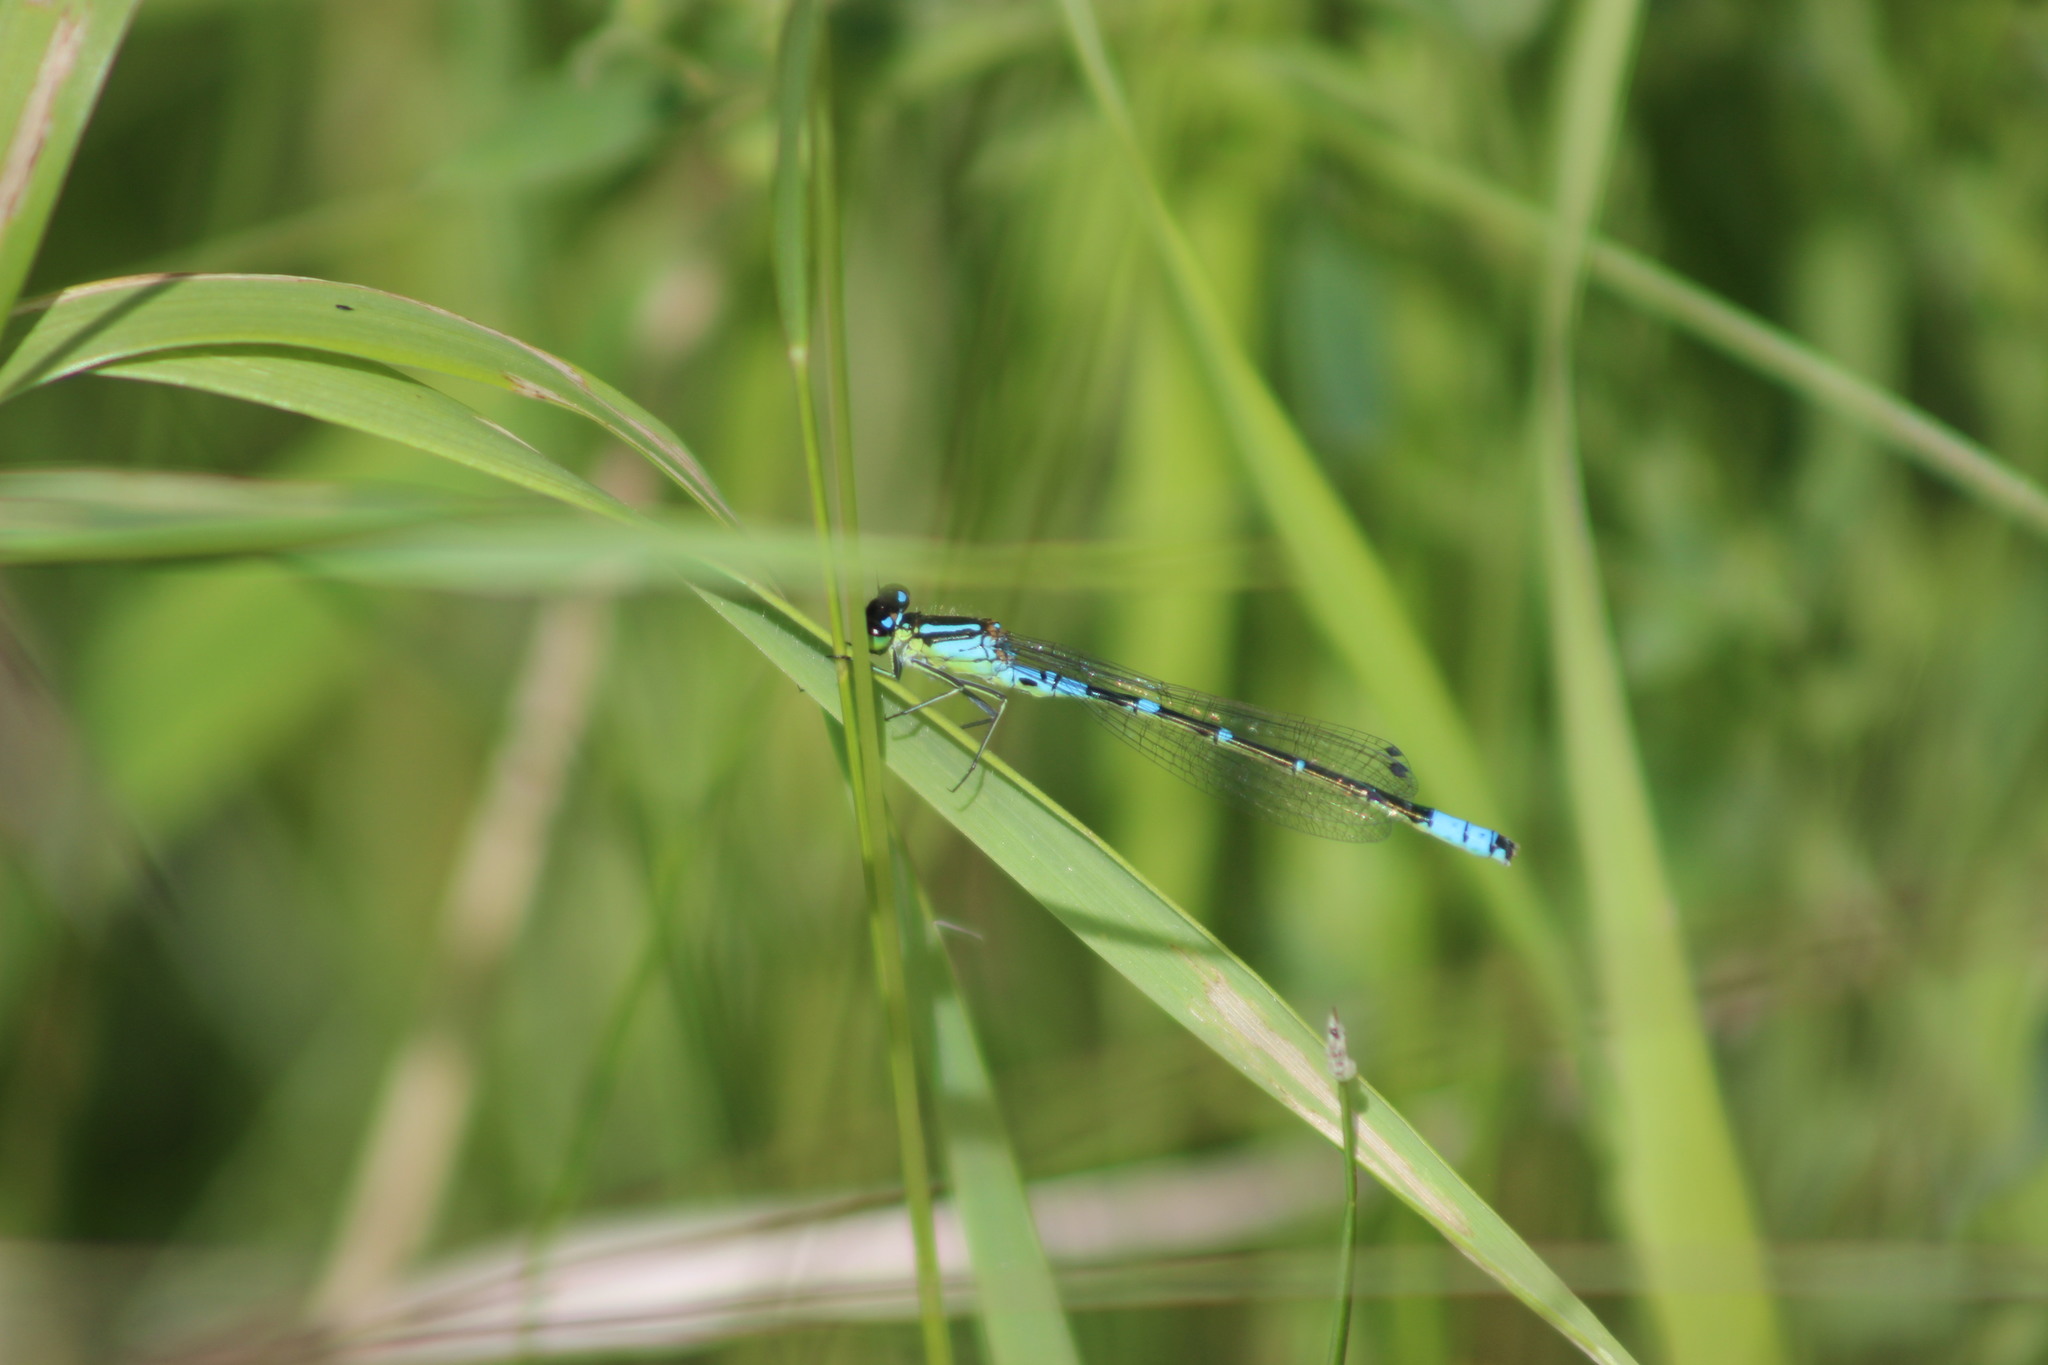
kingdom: Animalia
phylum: Arthropoda
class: Insecta
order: Odonata
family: Coenagrionidae
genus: Coenagrion
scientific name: Coenagrion lunulatum
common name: Irish damselfly
